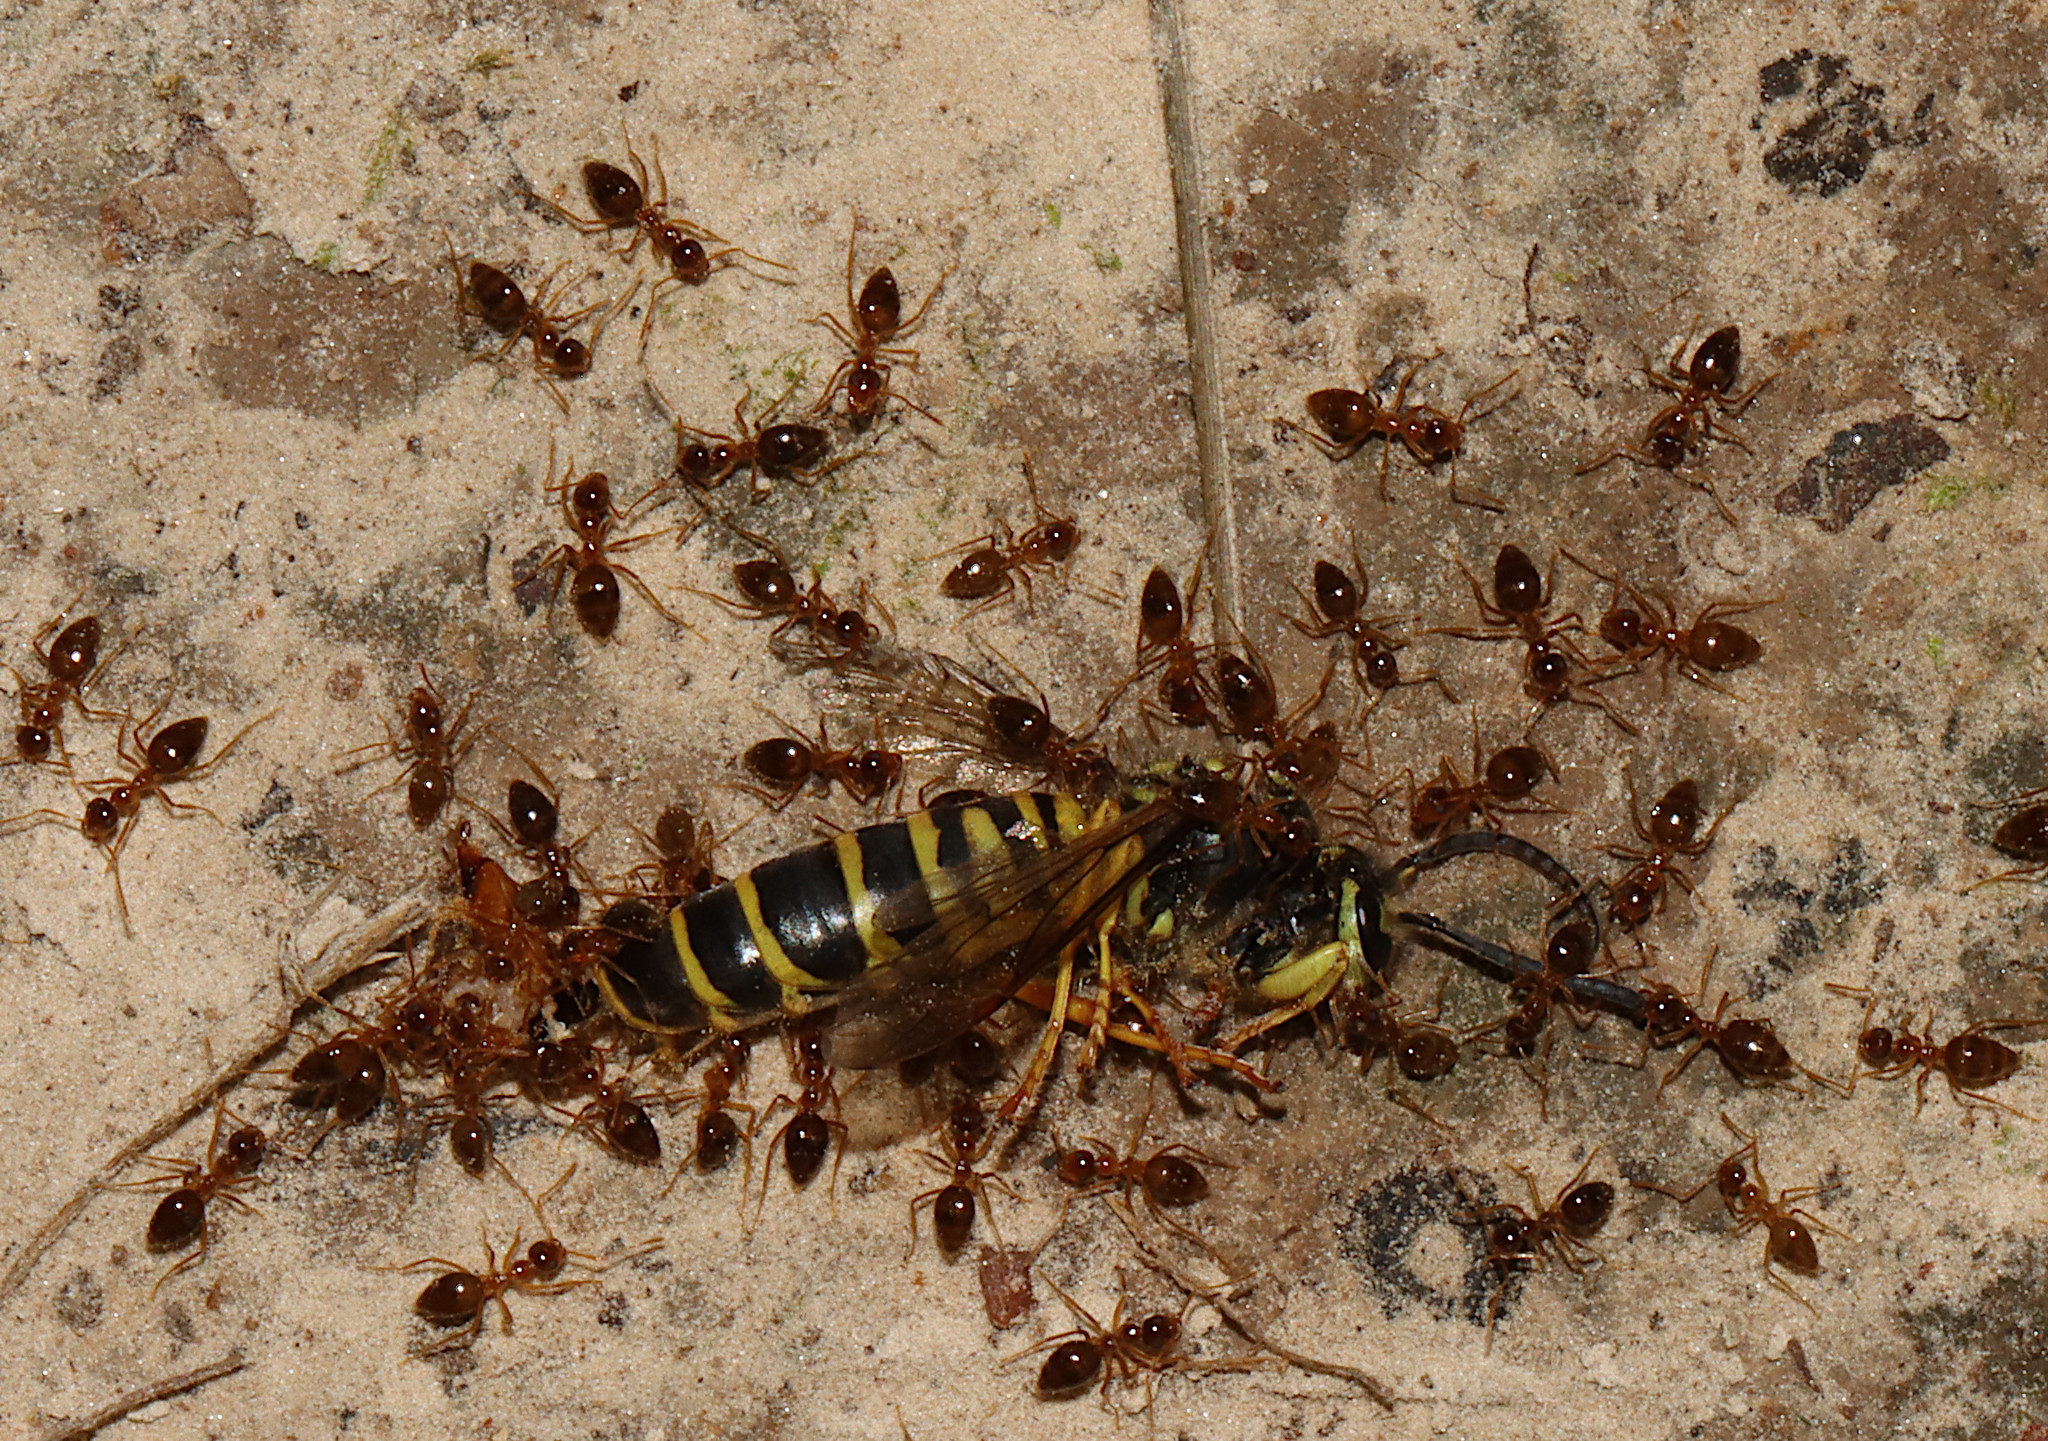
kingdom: Animalia
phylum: Arthropoda
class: Insecta
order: Hymenoptera
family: Vespidae
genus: Vespula
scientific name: Vespula squamosa
